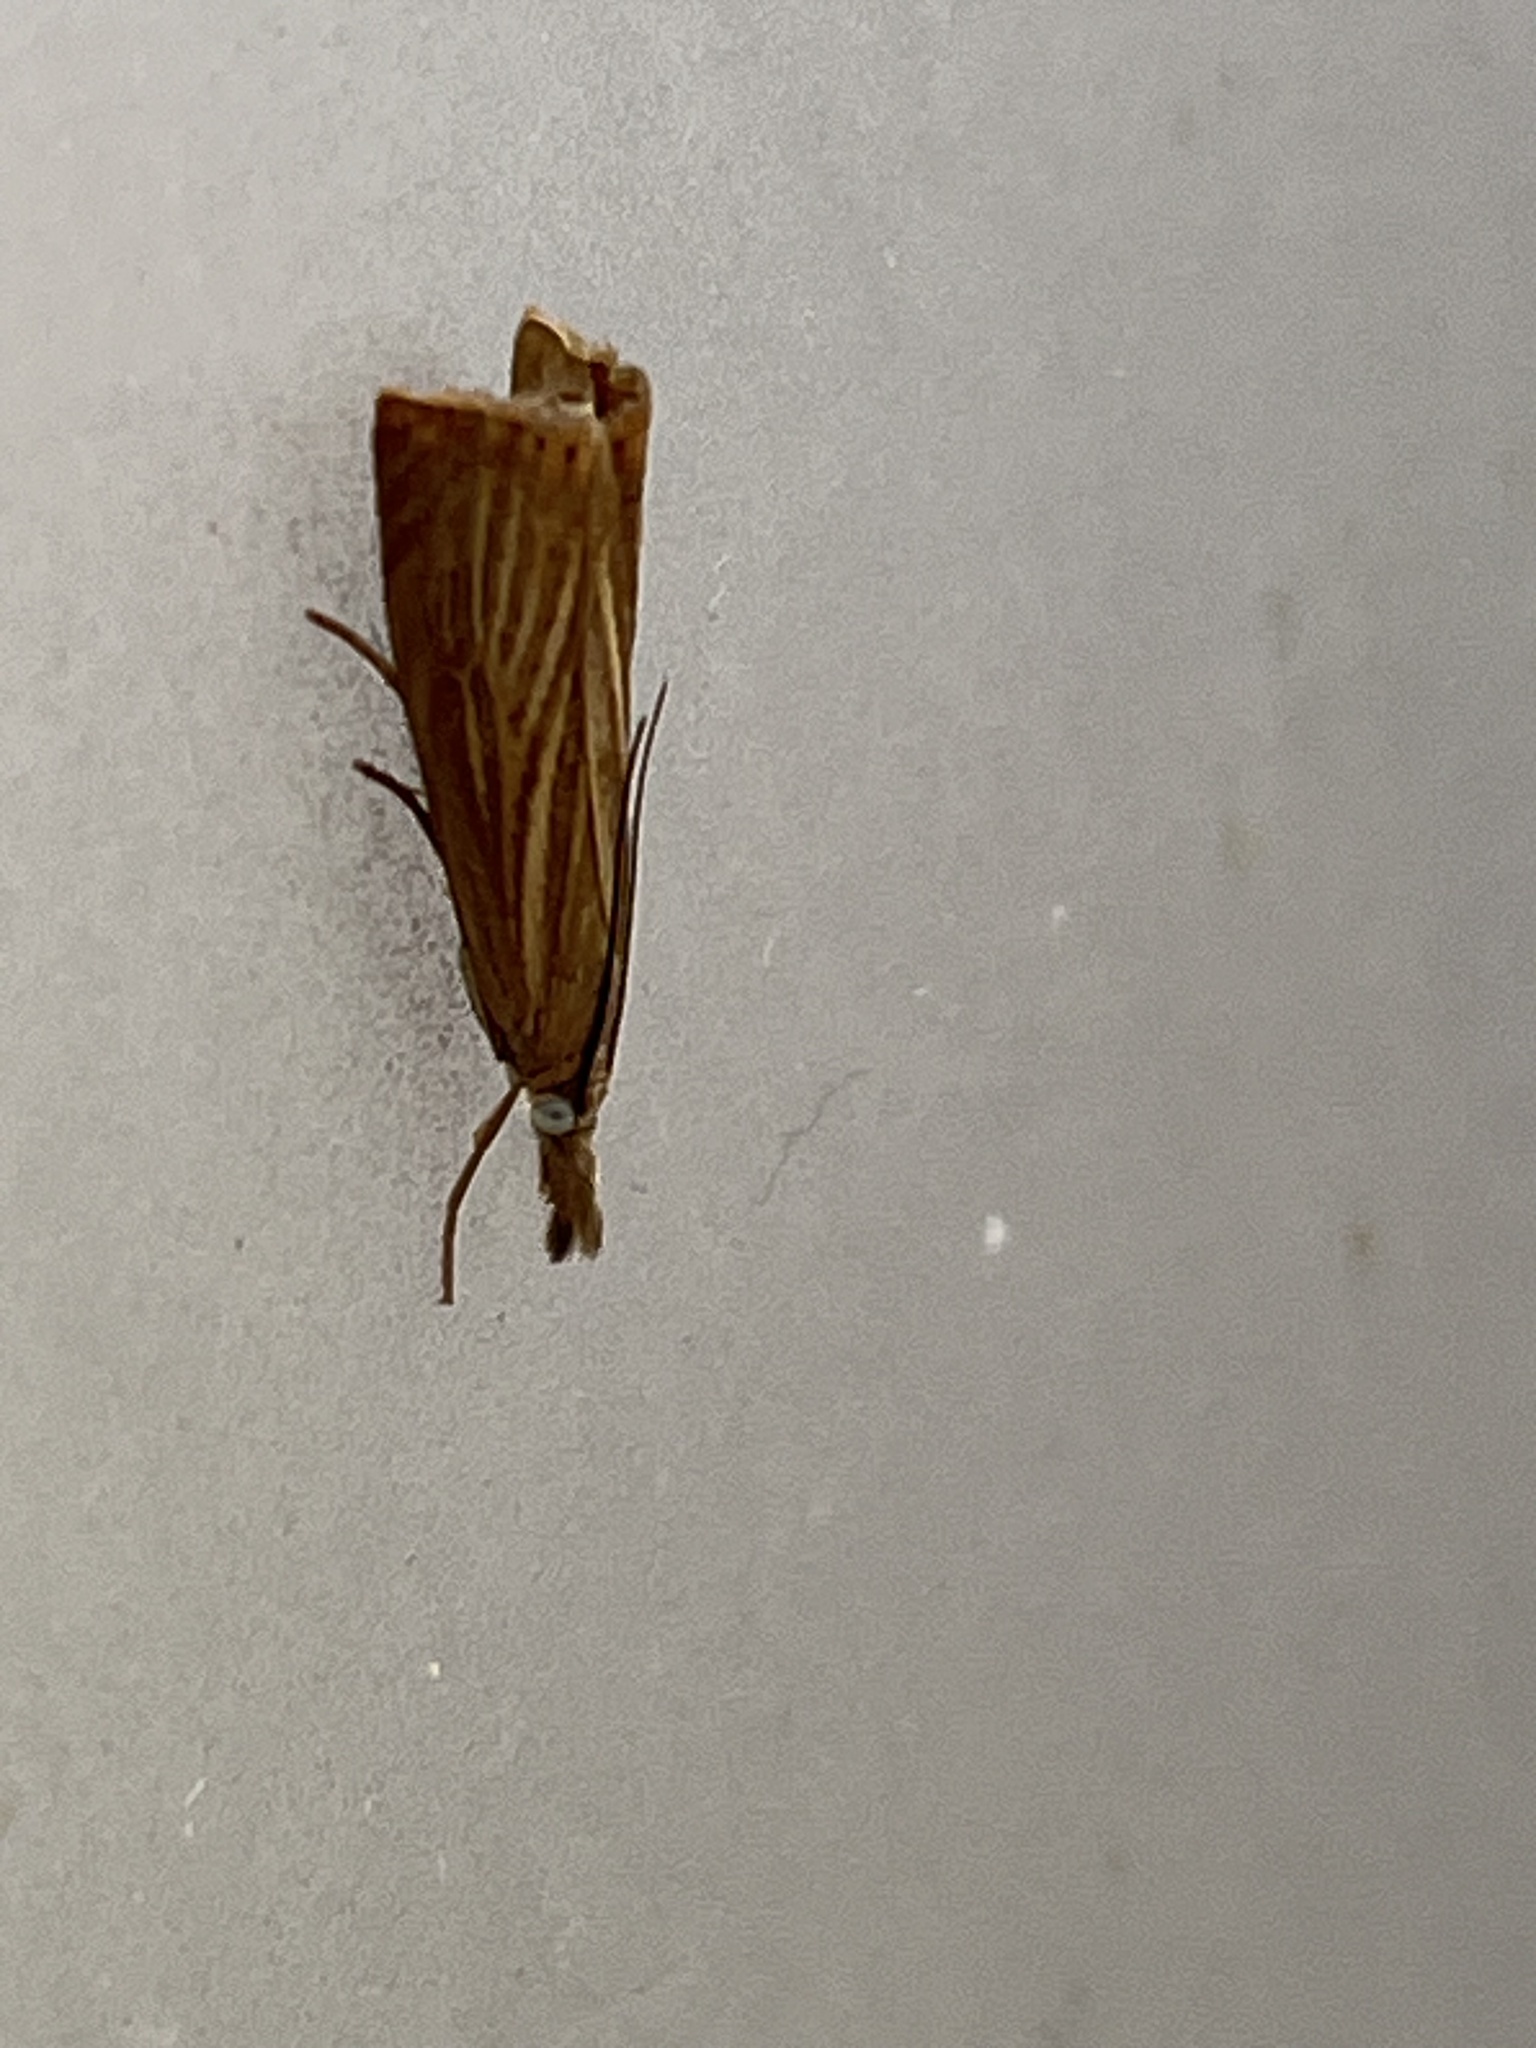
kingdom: Animalia
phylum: Arthropoda
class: Insecta
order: Lepidoptera
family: Crambidae
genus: Chrysoteuchia
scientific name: Chrysoteuchia culmella
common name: Garden grass-veneer
